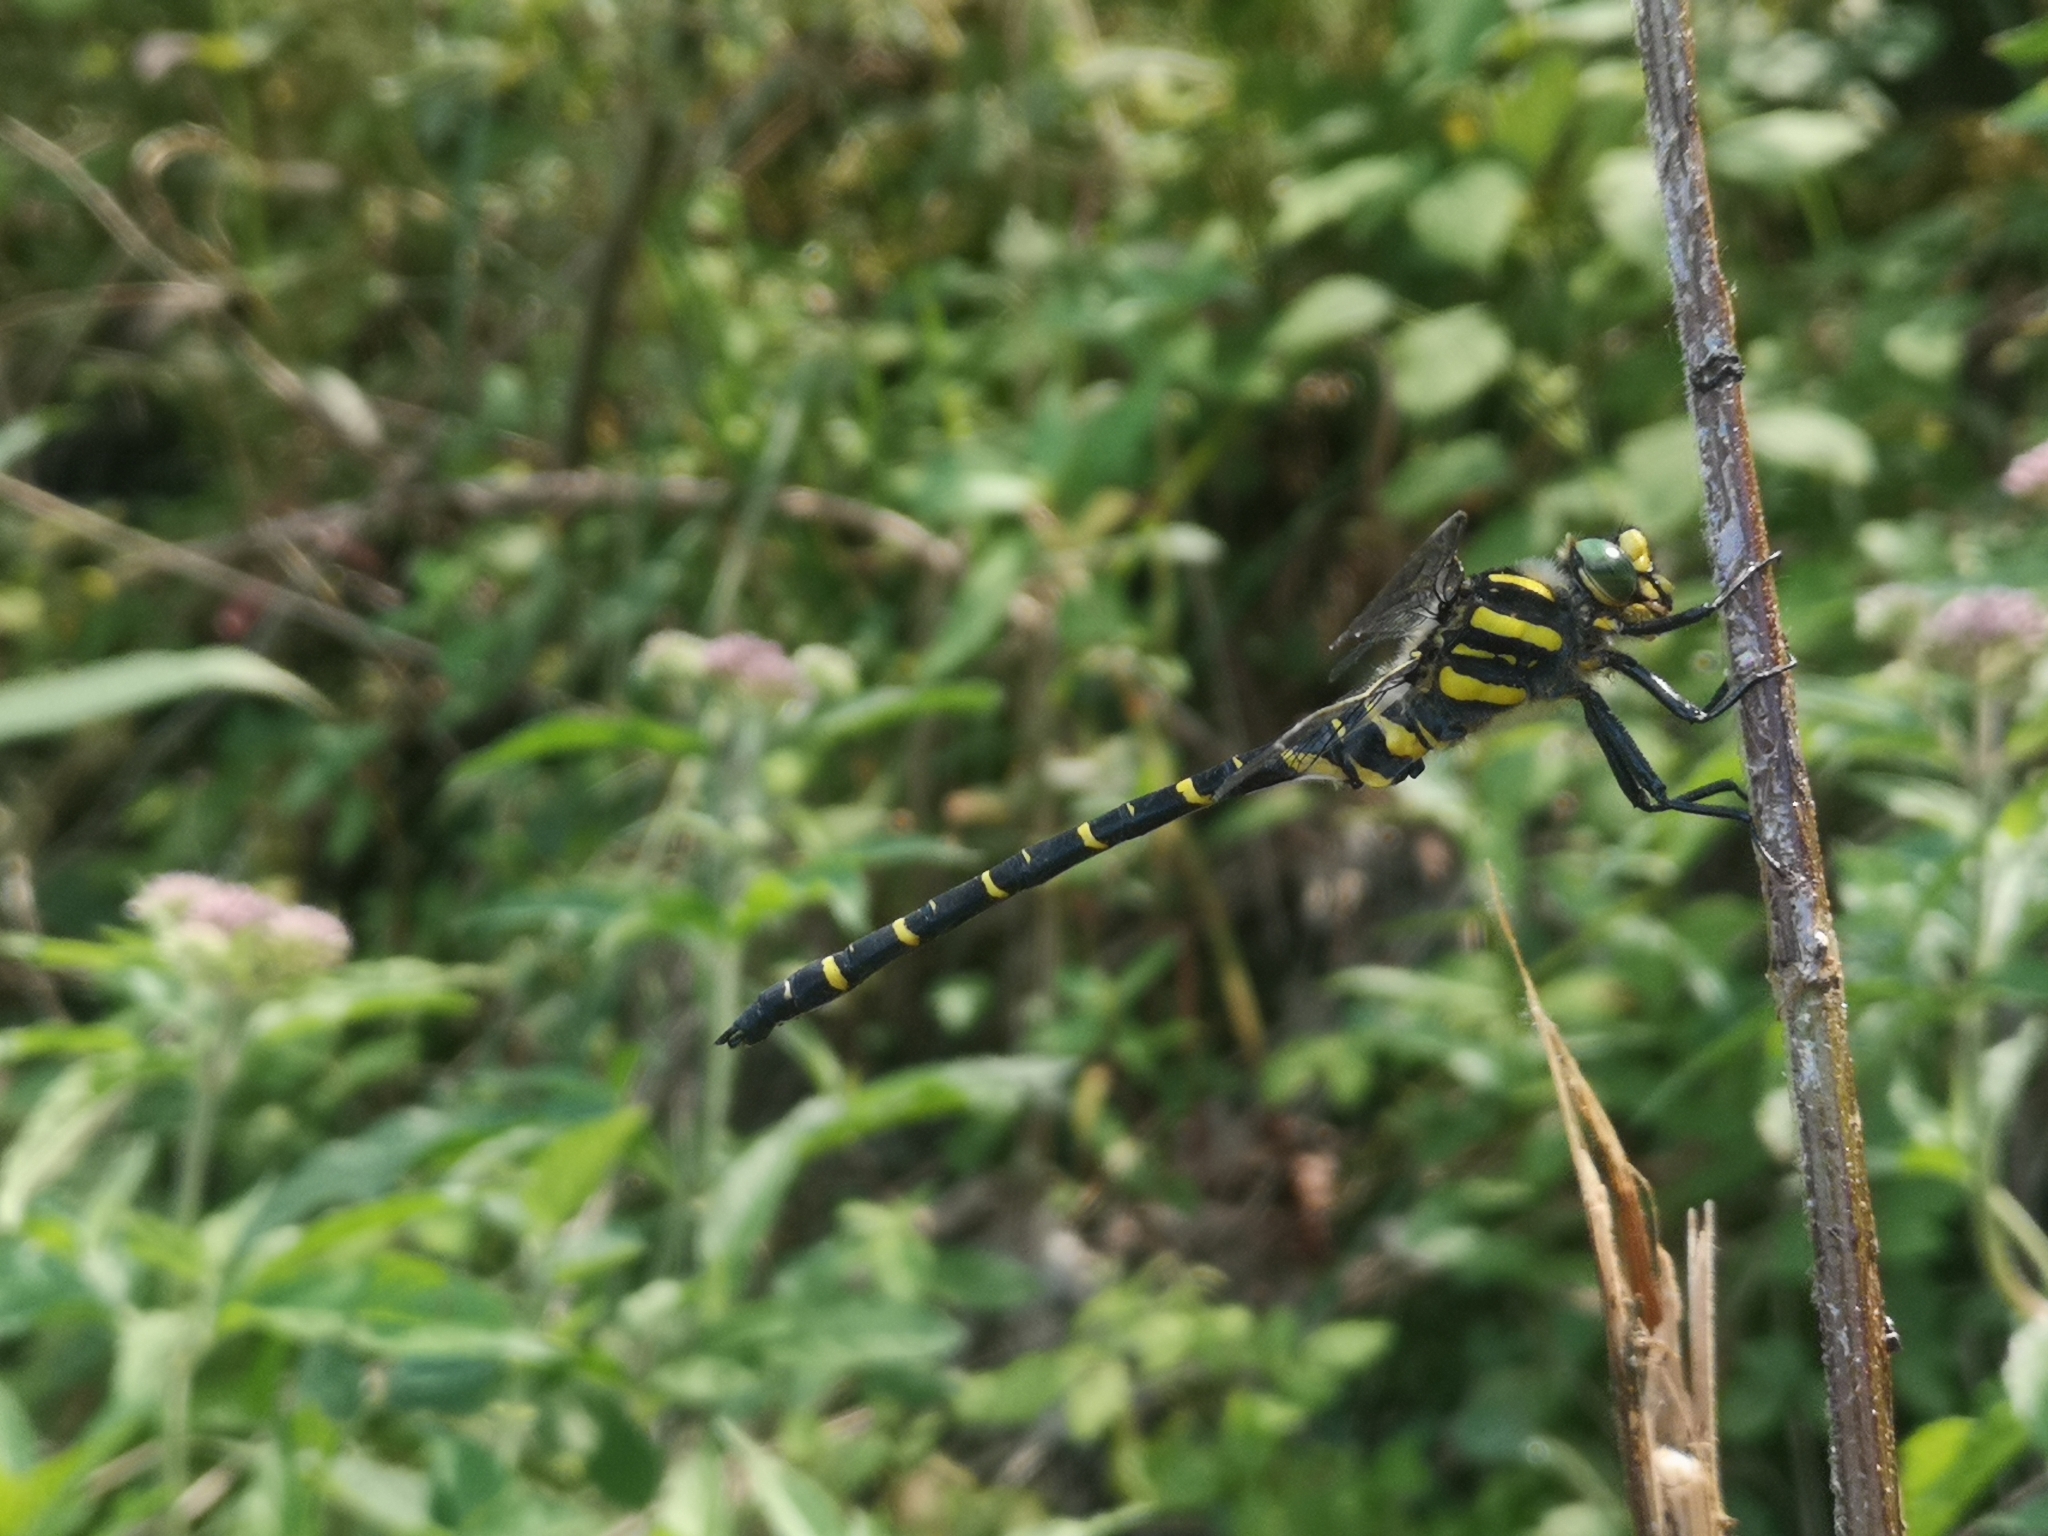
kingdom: Animalia
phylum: Arthropoda
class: Insecta
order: Odonata
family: Cordulegastridae
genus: Cordulegaster
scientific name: Cordulegaster boltonii
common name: Golden-ringed dragonfly
